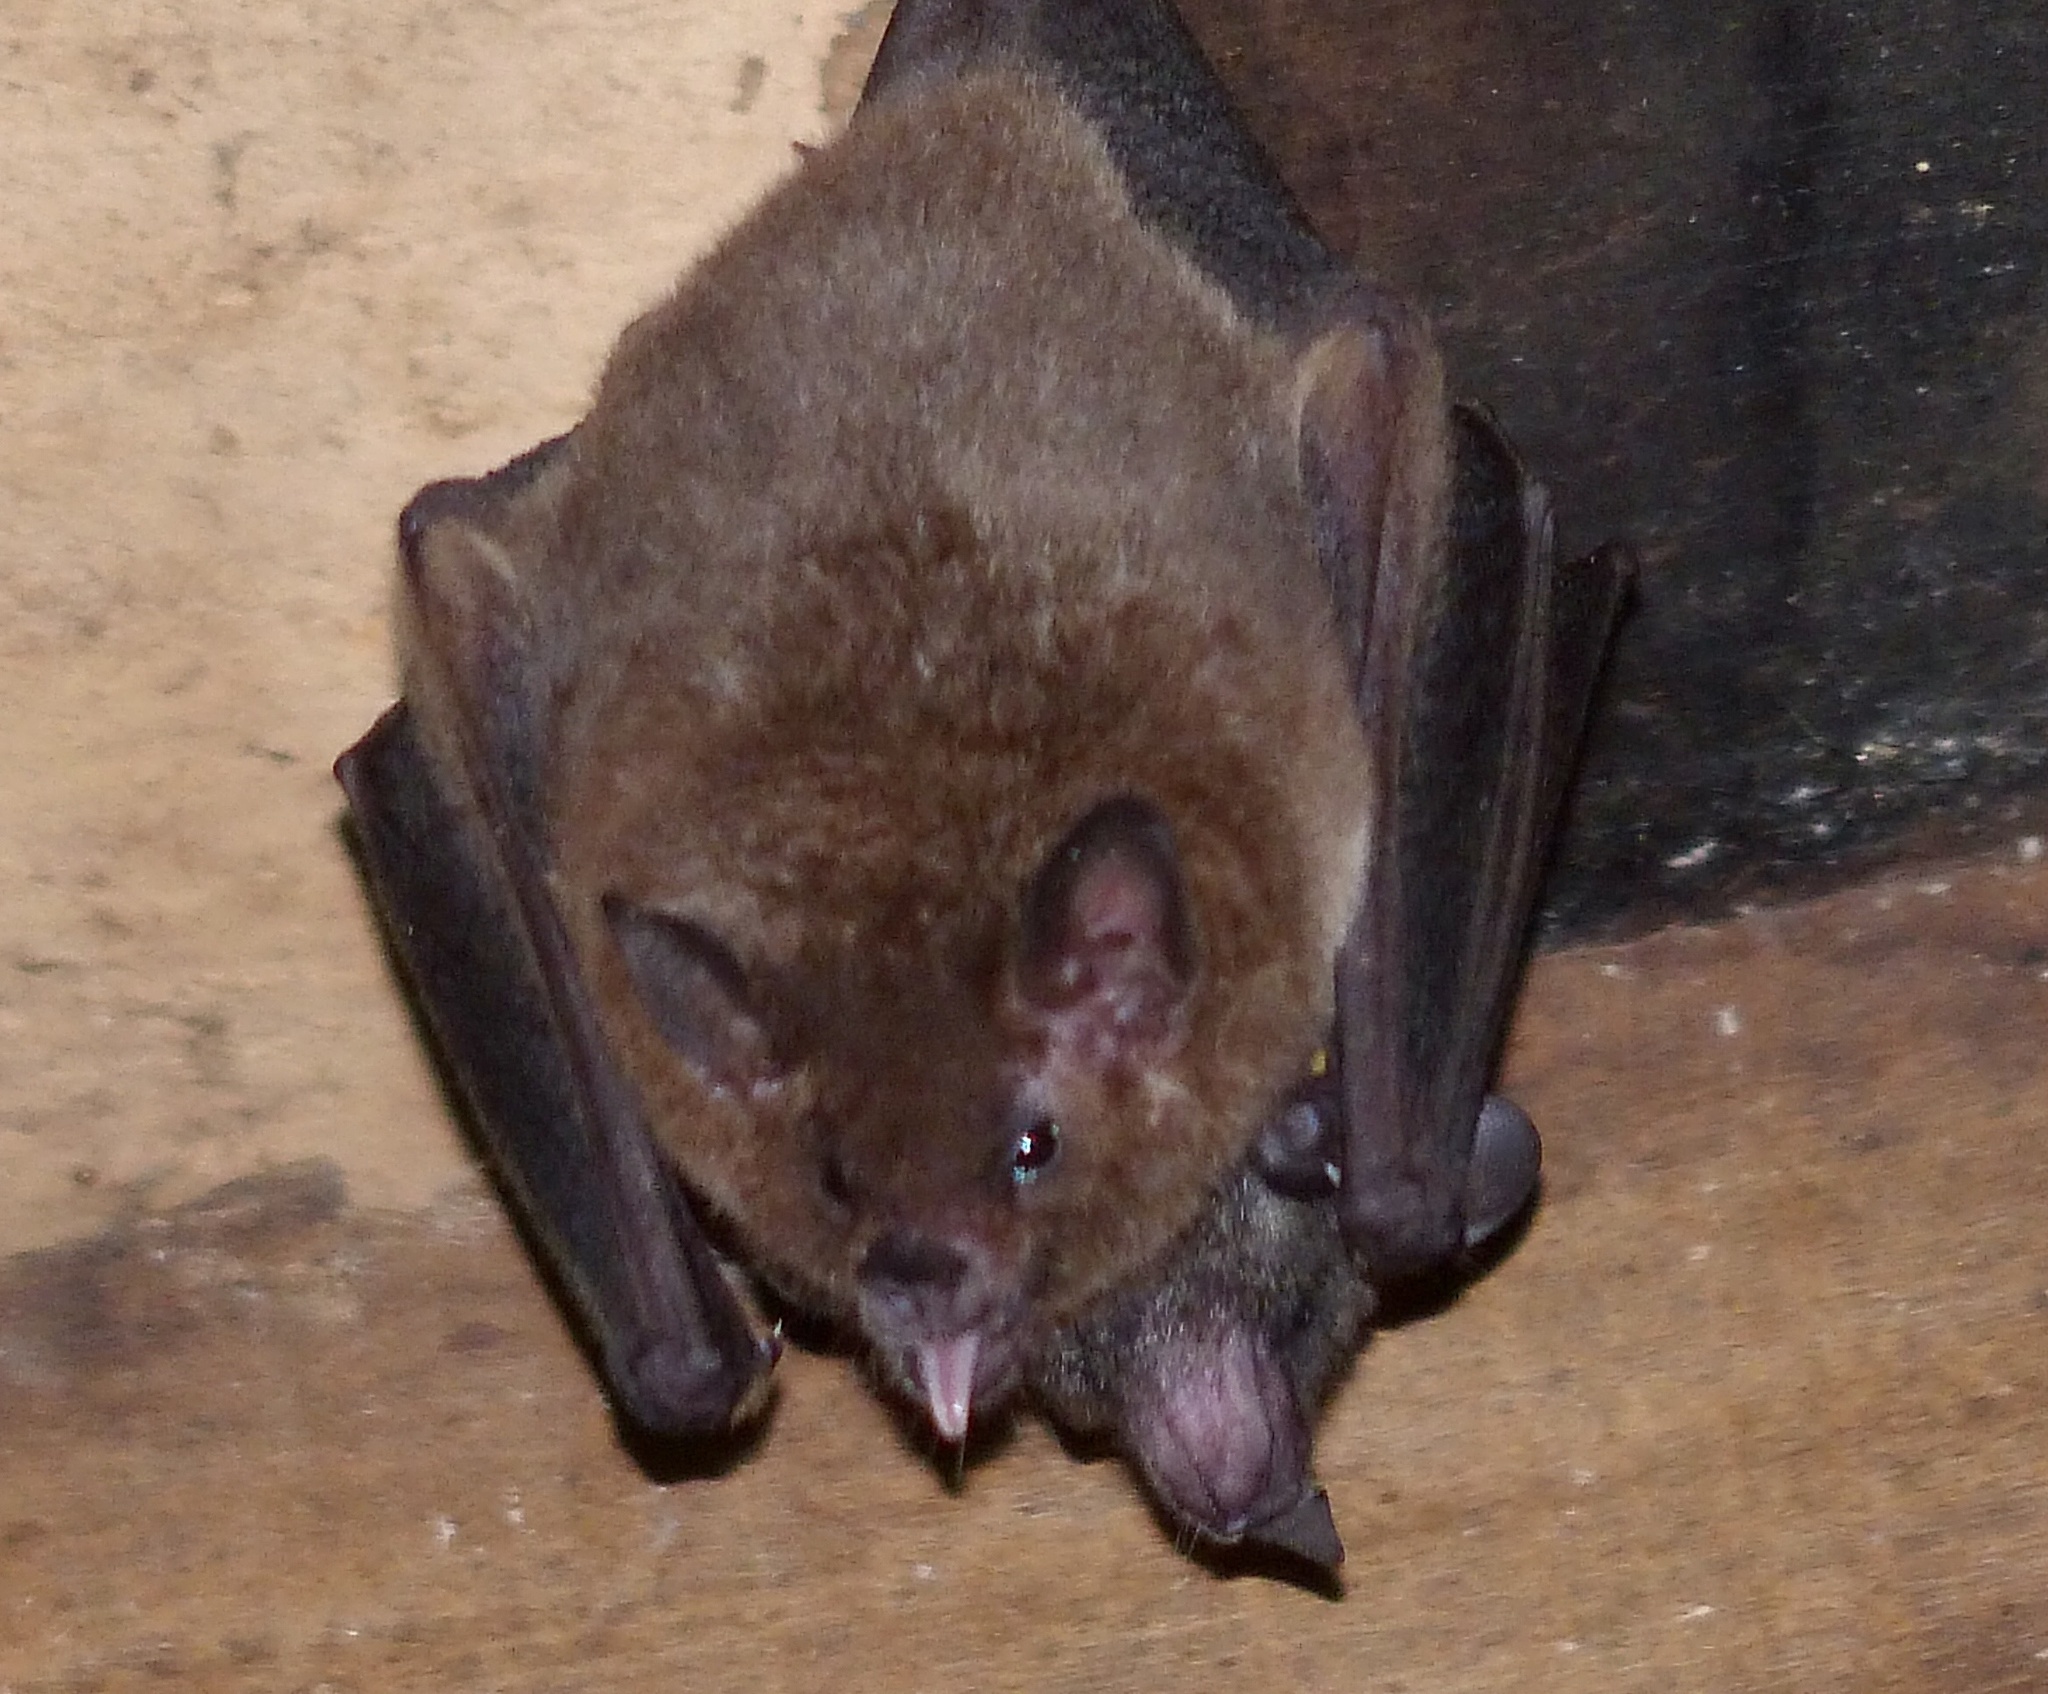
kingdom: Animalia
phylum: Chordata
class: Mammalia
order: Chiroptera
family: Phyllostomidae
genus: Glossophaga
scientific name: Glossophaga soricina
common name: Pallas's long-tongued bat
